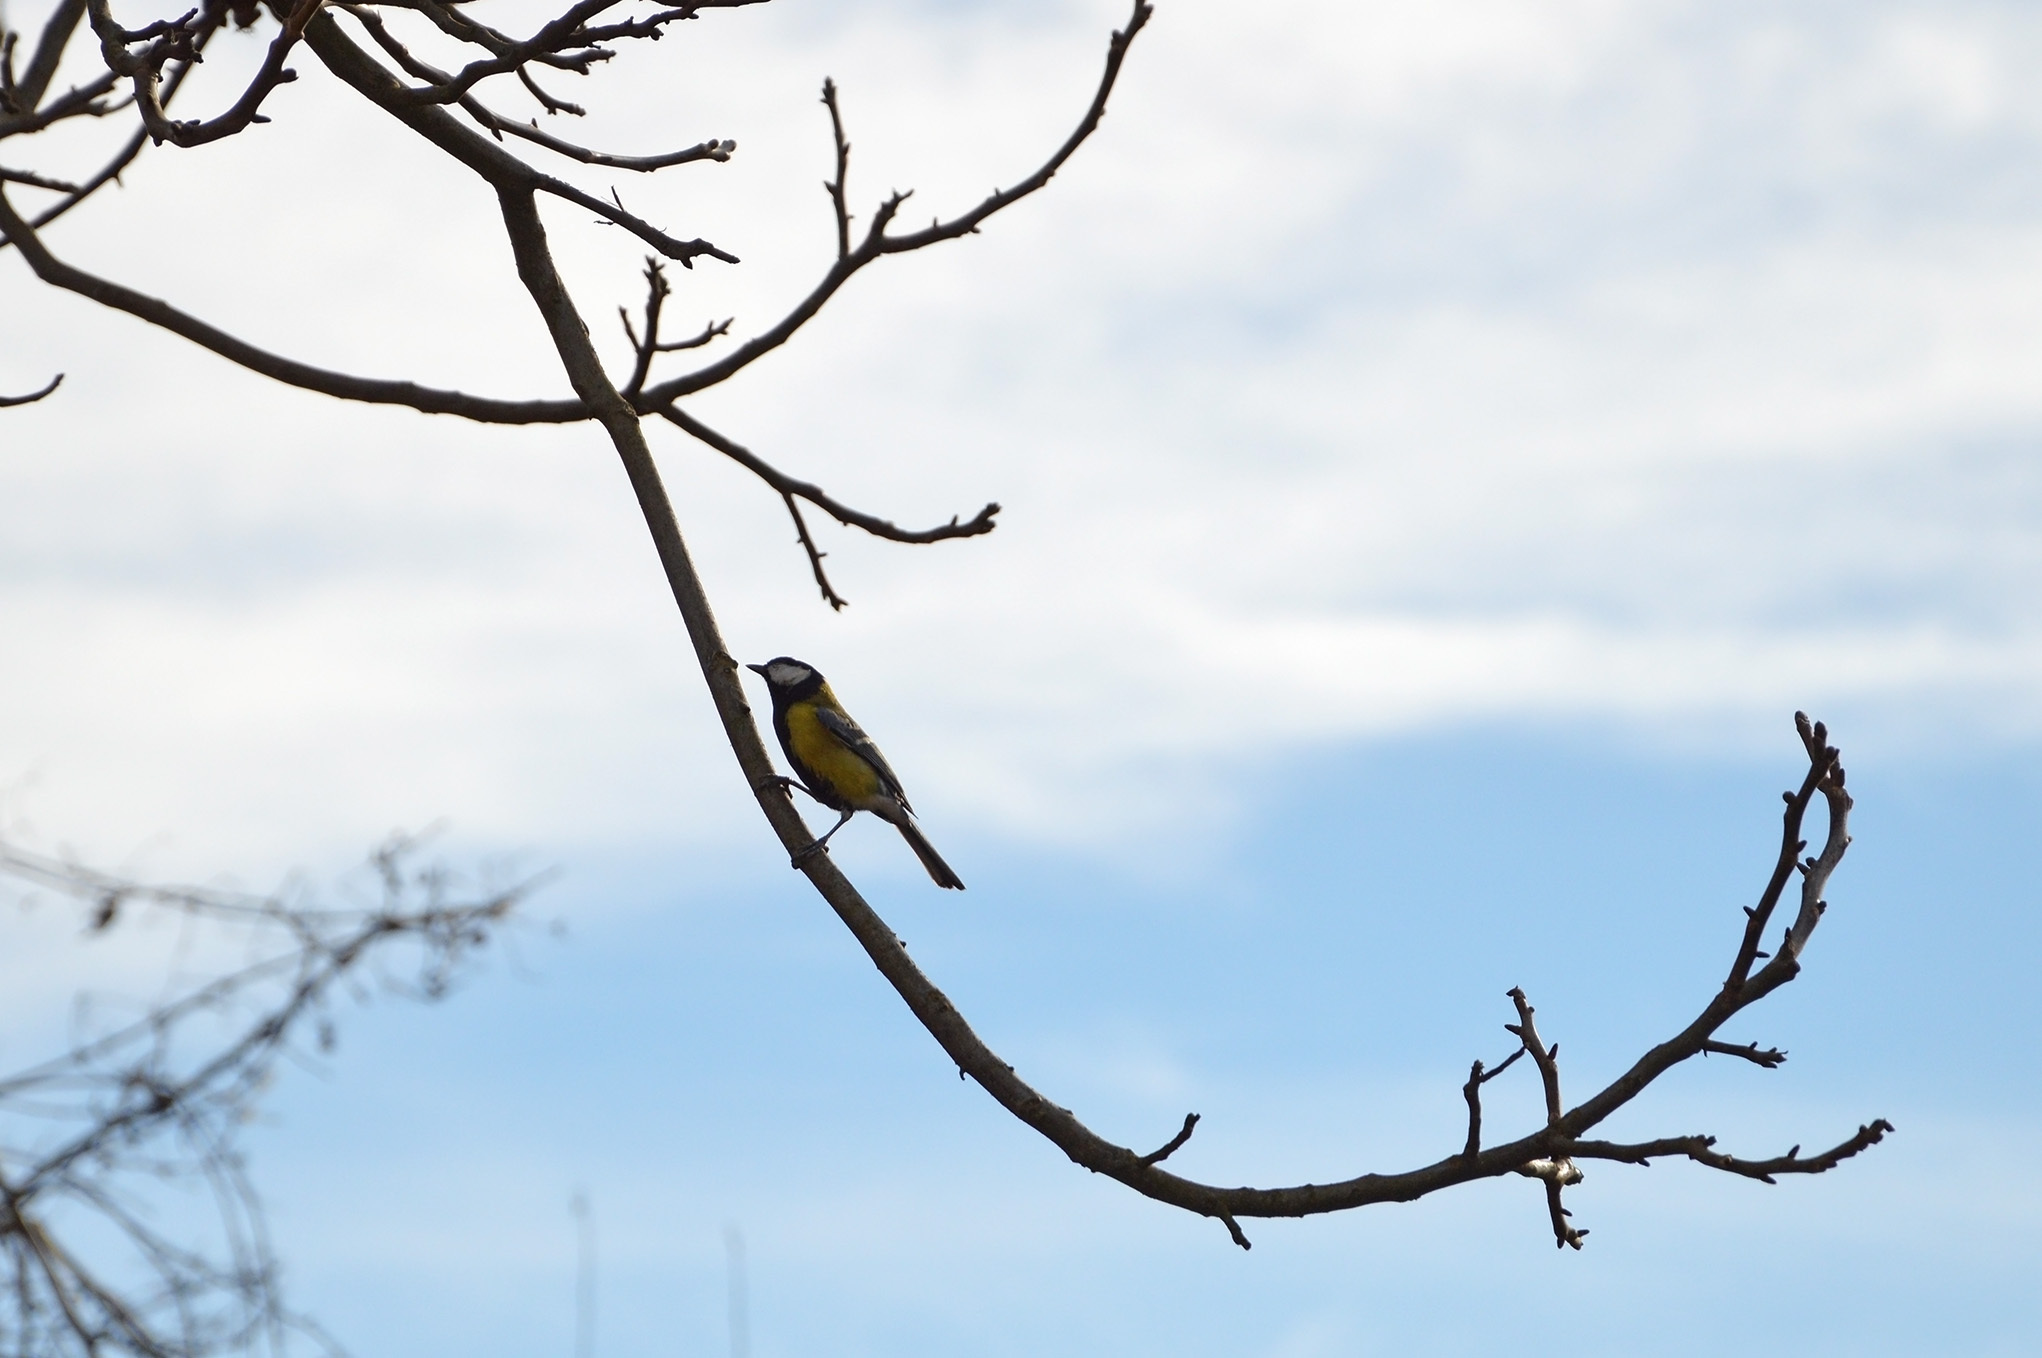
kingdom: Animalia
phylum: Chordata
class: Aves
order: Passeriformes
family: Paridae
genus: Parus
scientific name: Parus major
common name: Great tit
